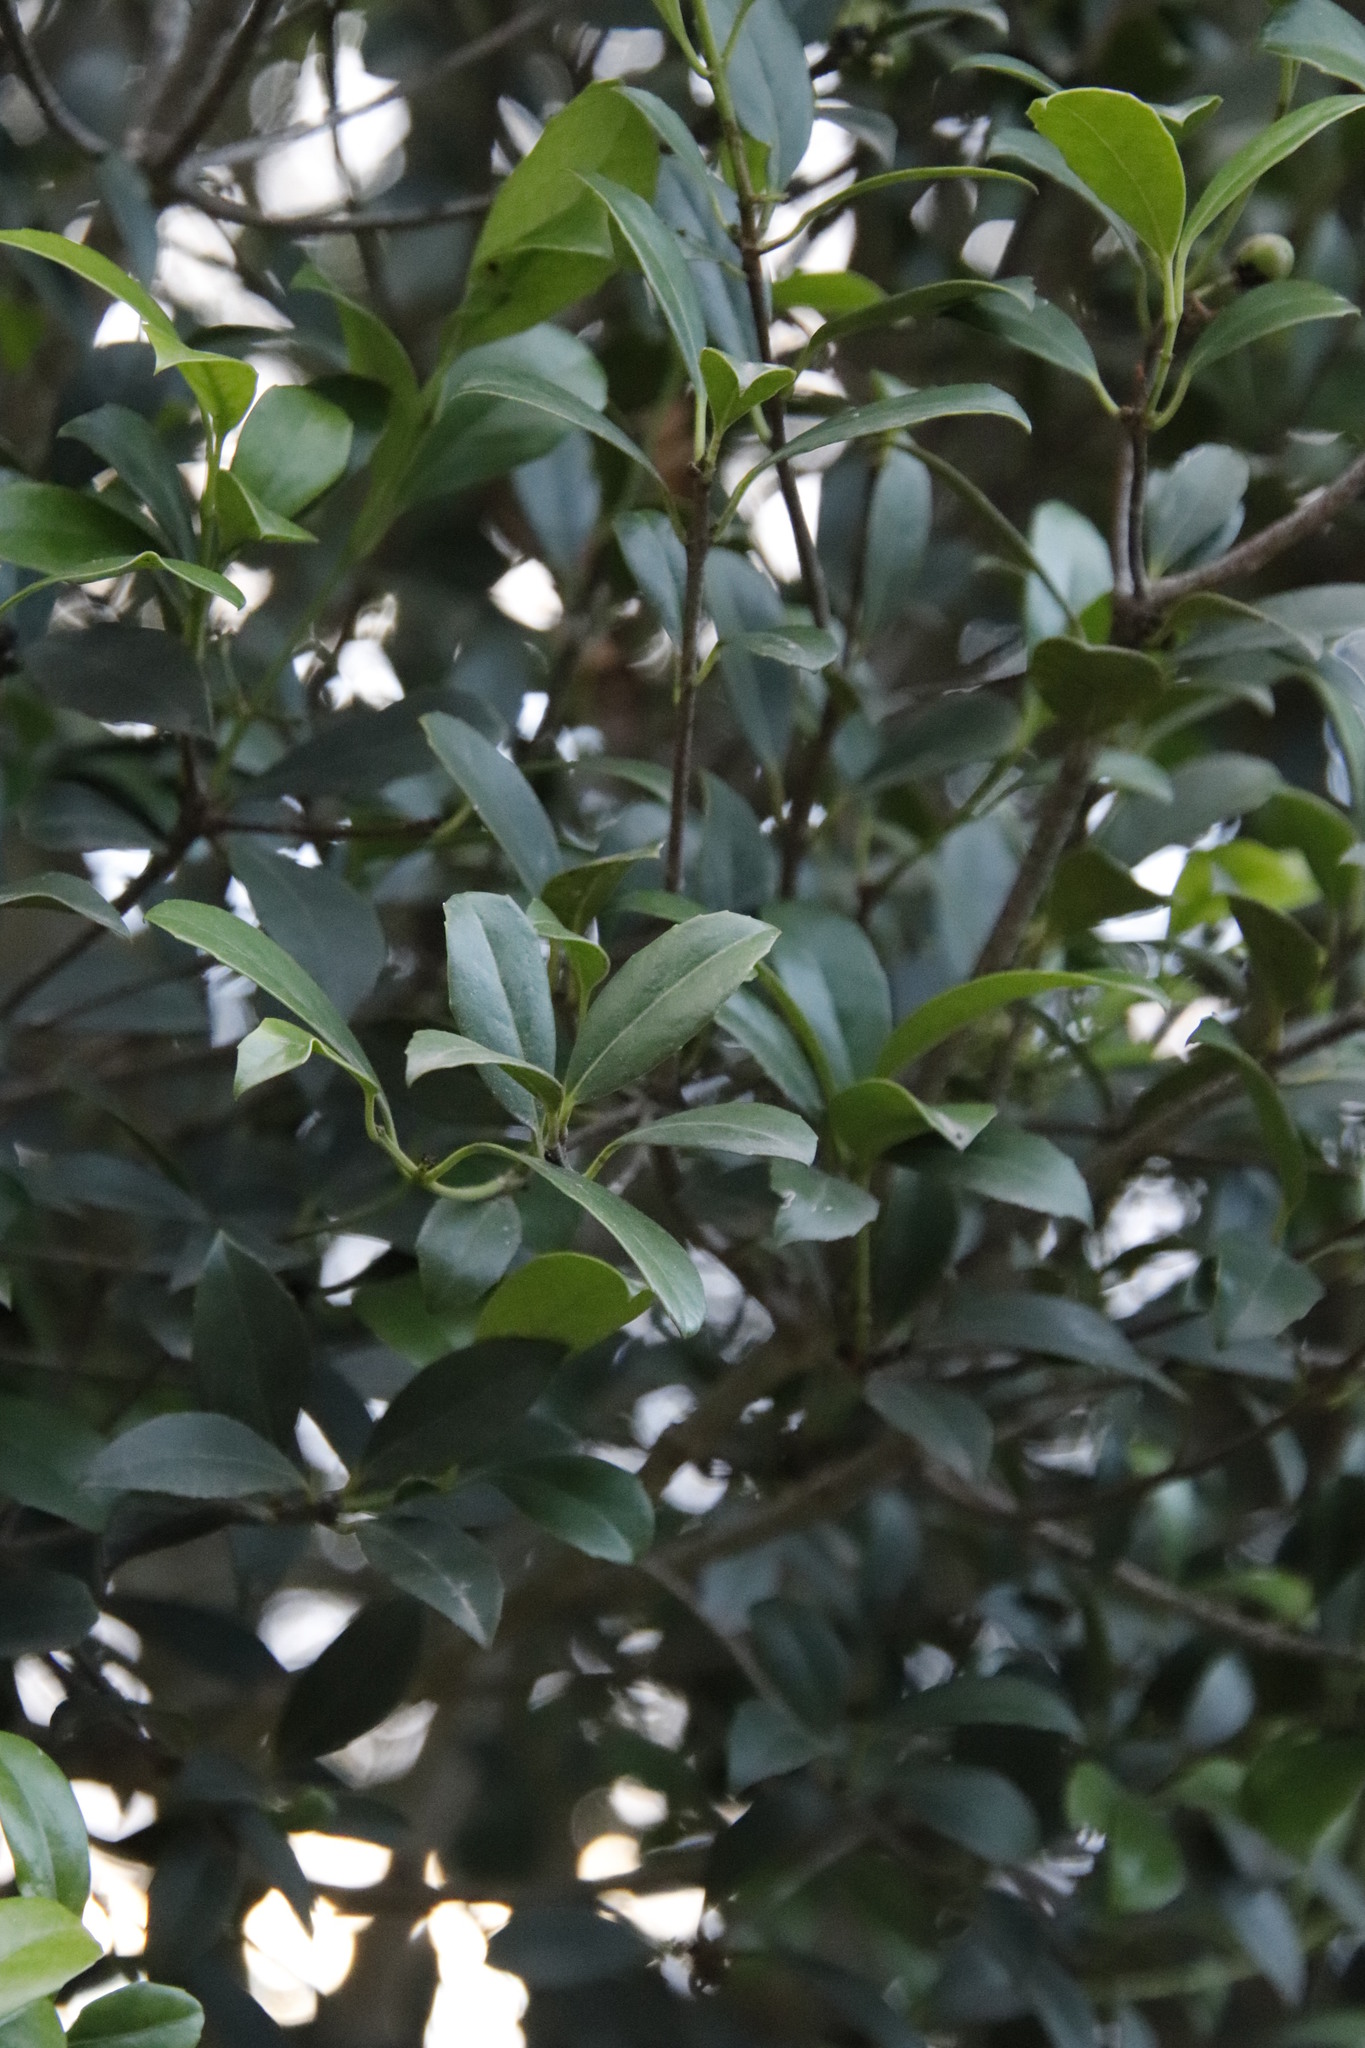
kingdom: Plantae
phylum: Tracheophyta
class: Magnoliopsida
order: Celastrales
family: Celastraceae
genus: Elaeodendron
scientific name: Elaeodendron croceum
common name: Saffron
